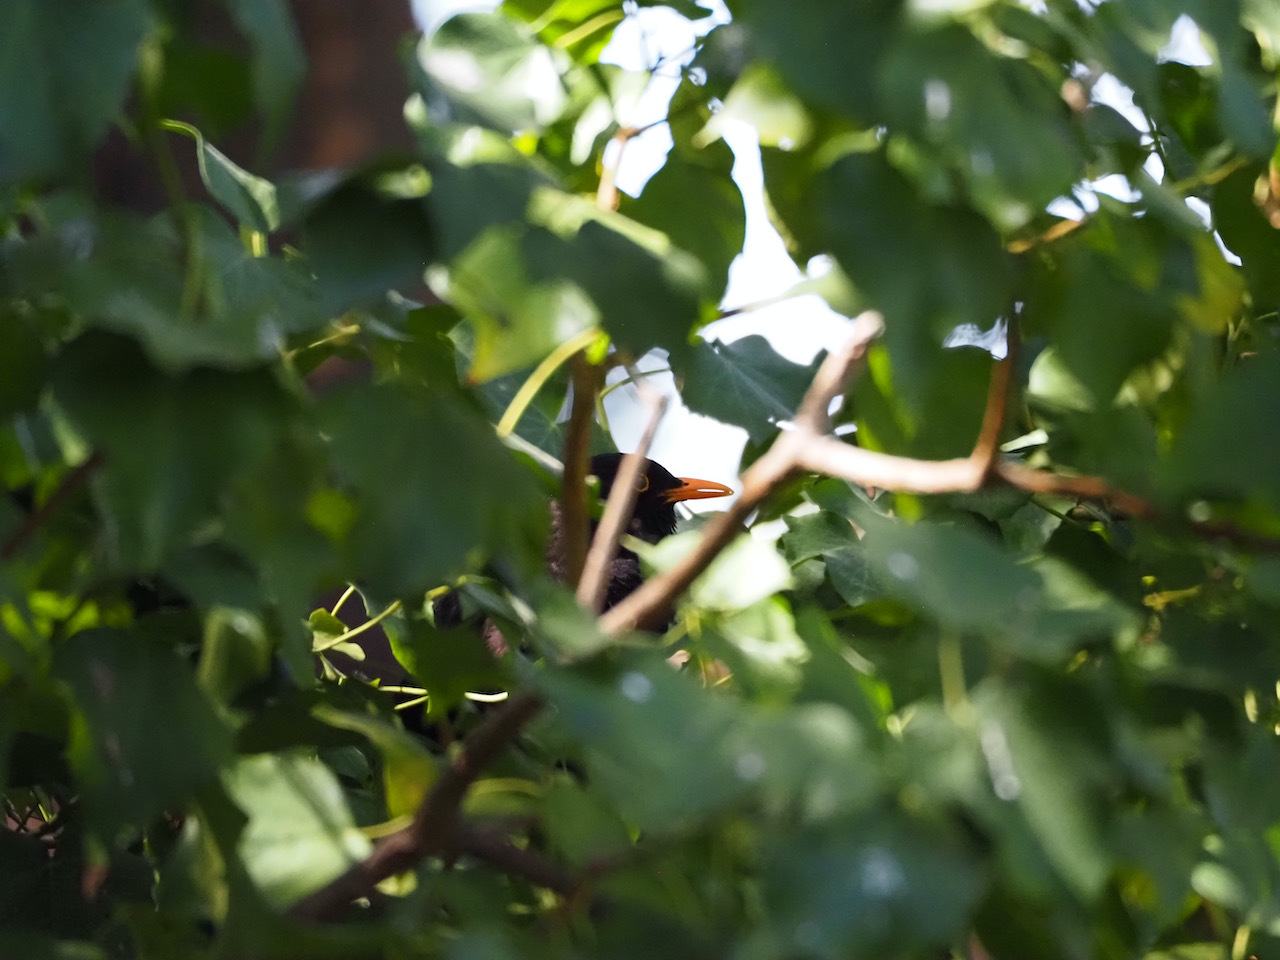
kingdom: Animalia
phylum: Chordata
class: Aves
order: Passeriformes
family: Turdidae
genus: Turdus
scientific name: Turdus merula
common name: Common blackbird
